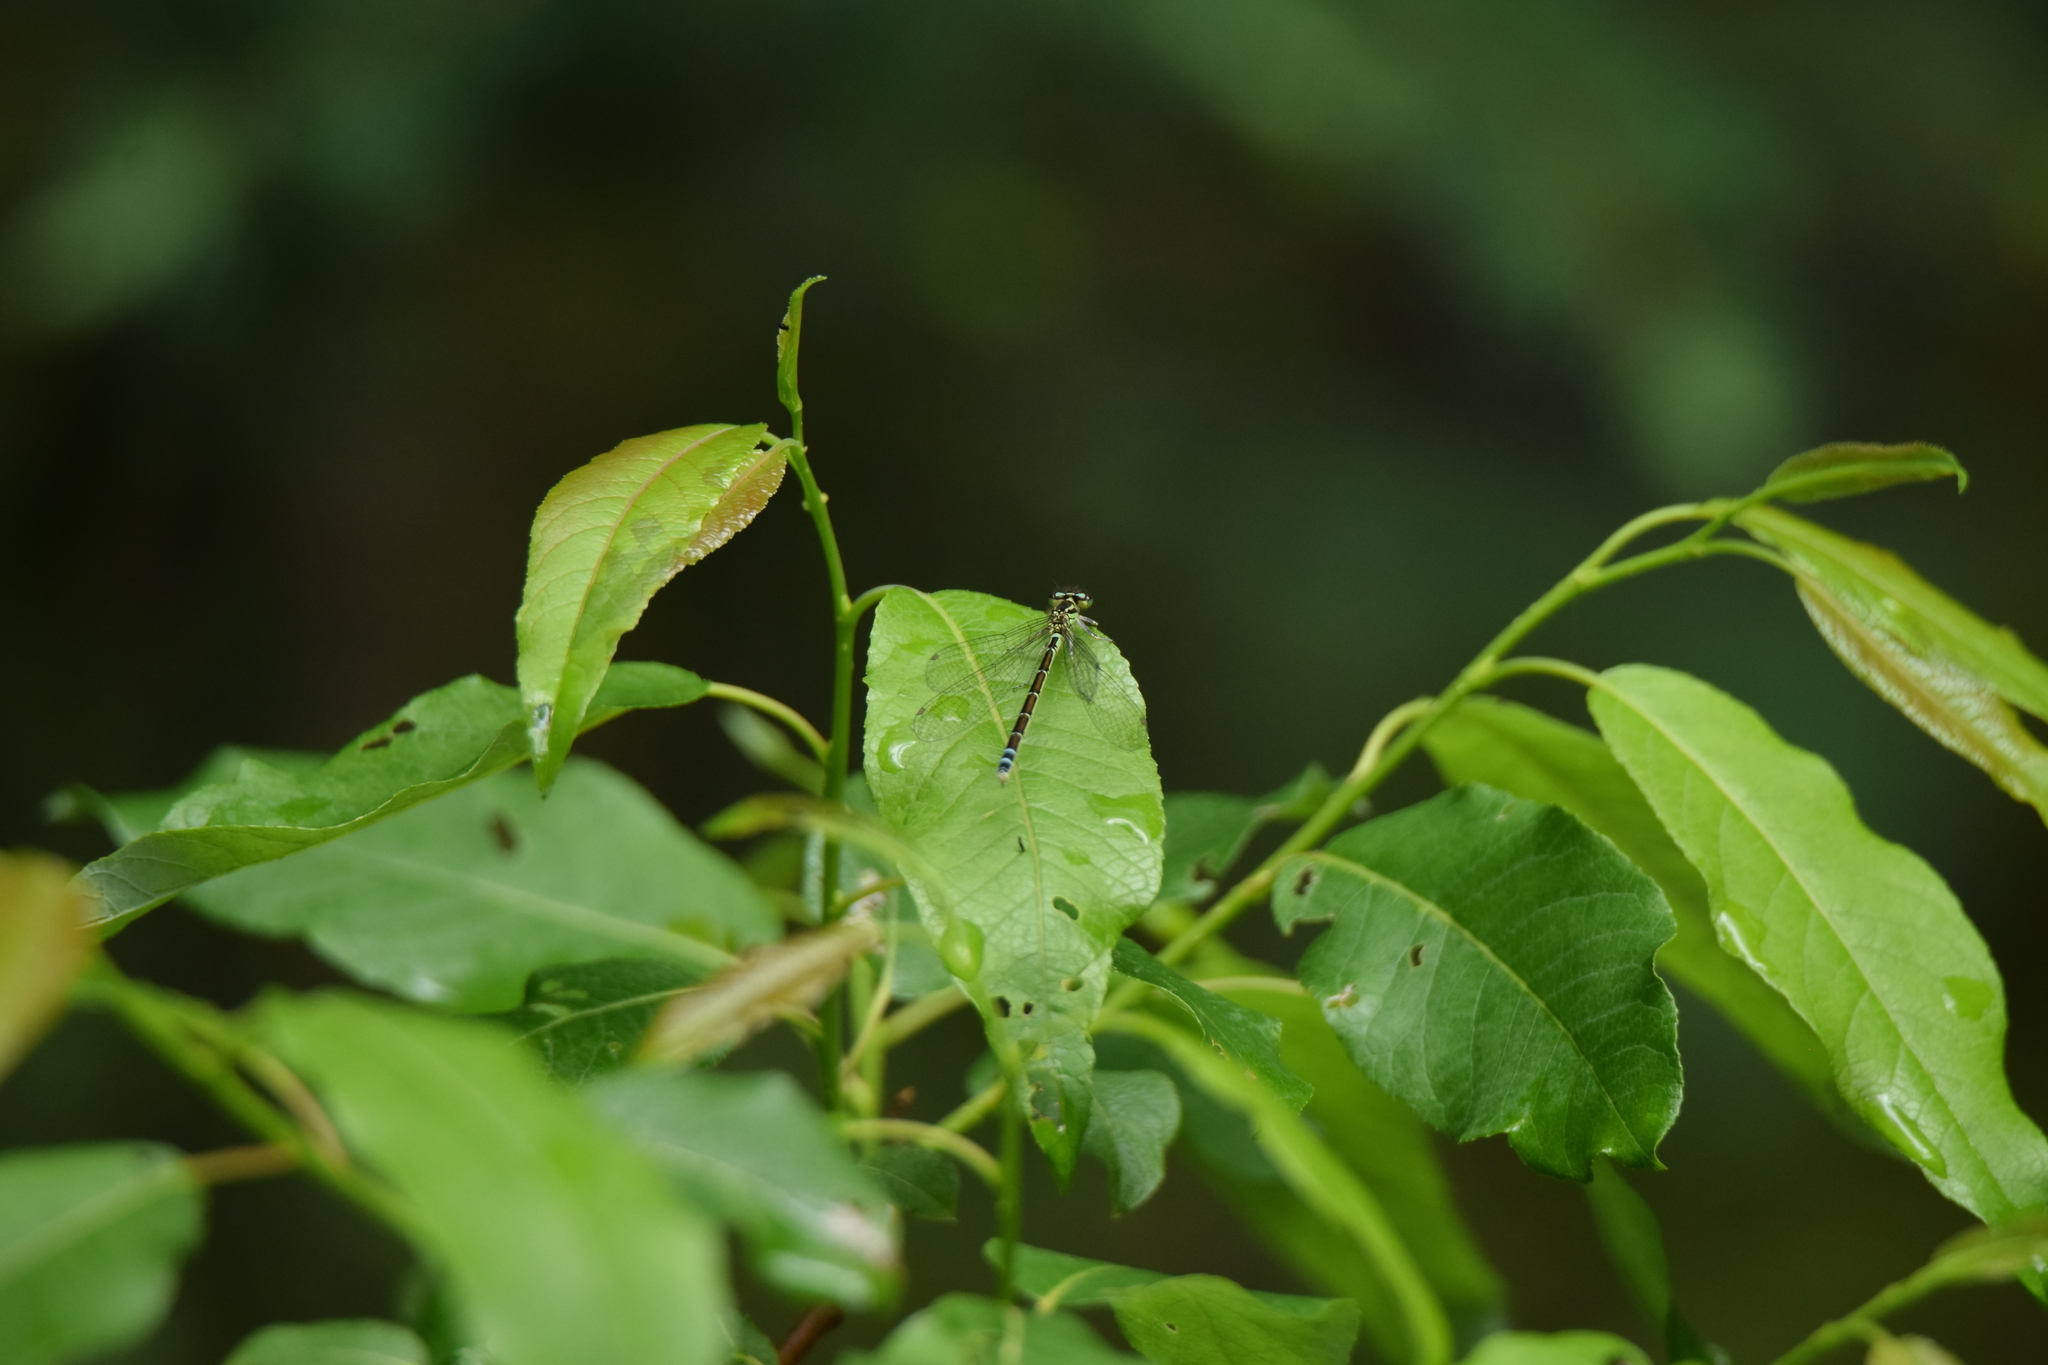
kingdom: Animalia
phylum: Arthropoda
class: Insecta
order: Odonata
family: Coenagrionidae
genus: Coenagrion
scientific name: Coenagrion resolutum
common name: Taiga bluet
